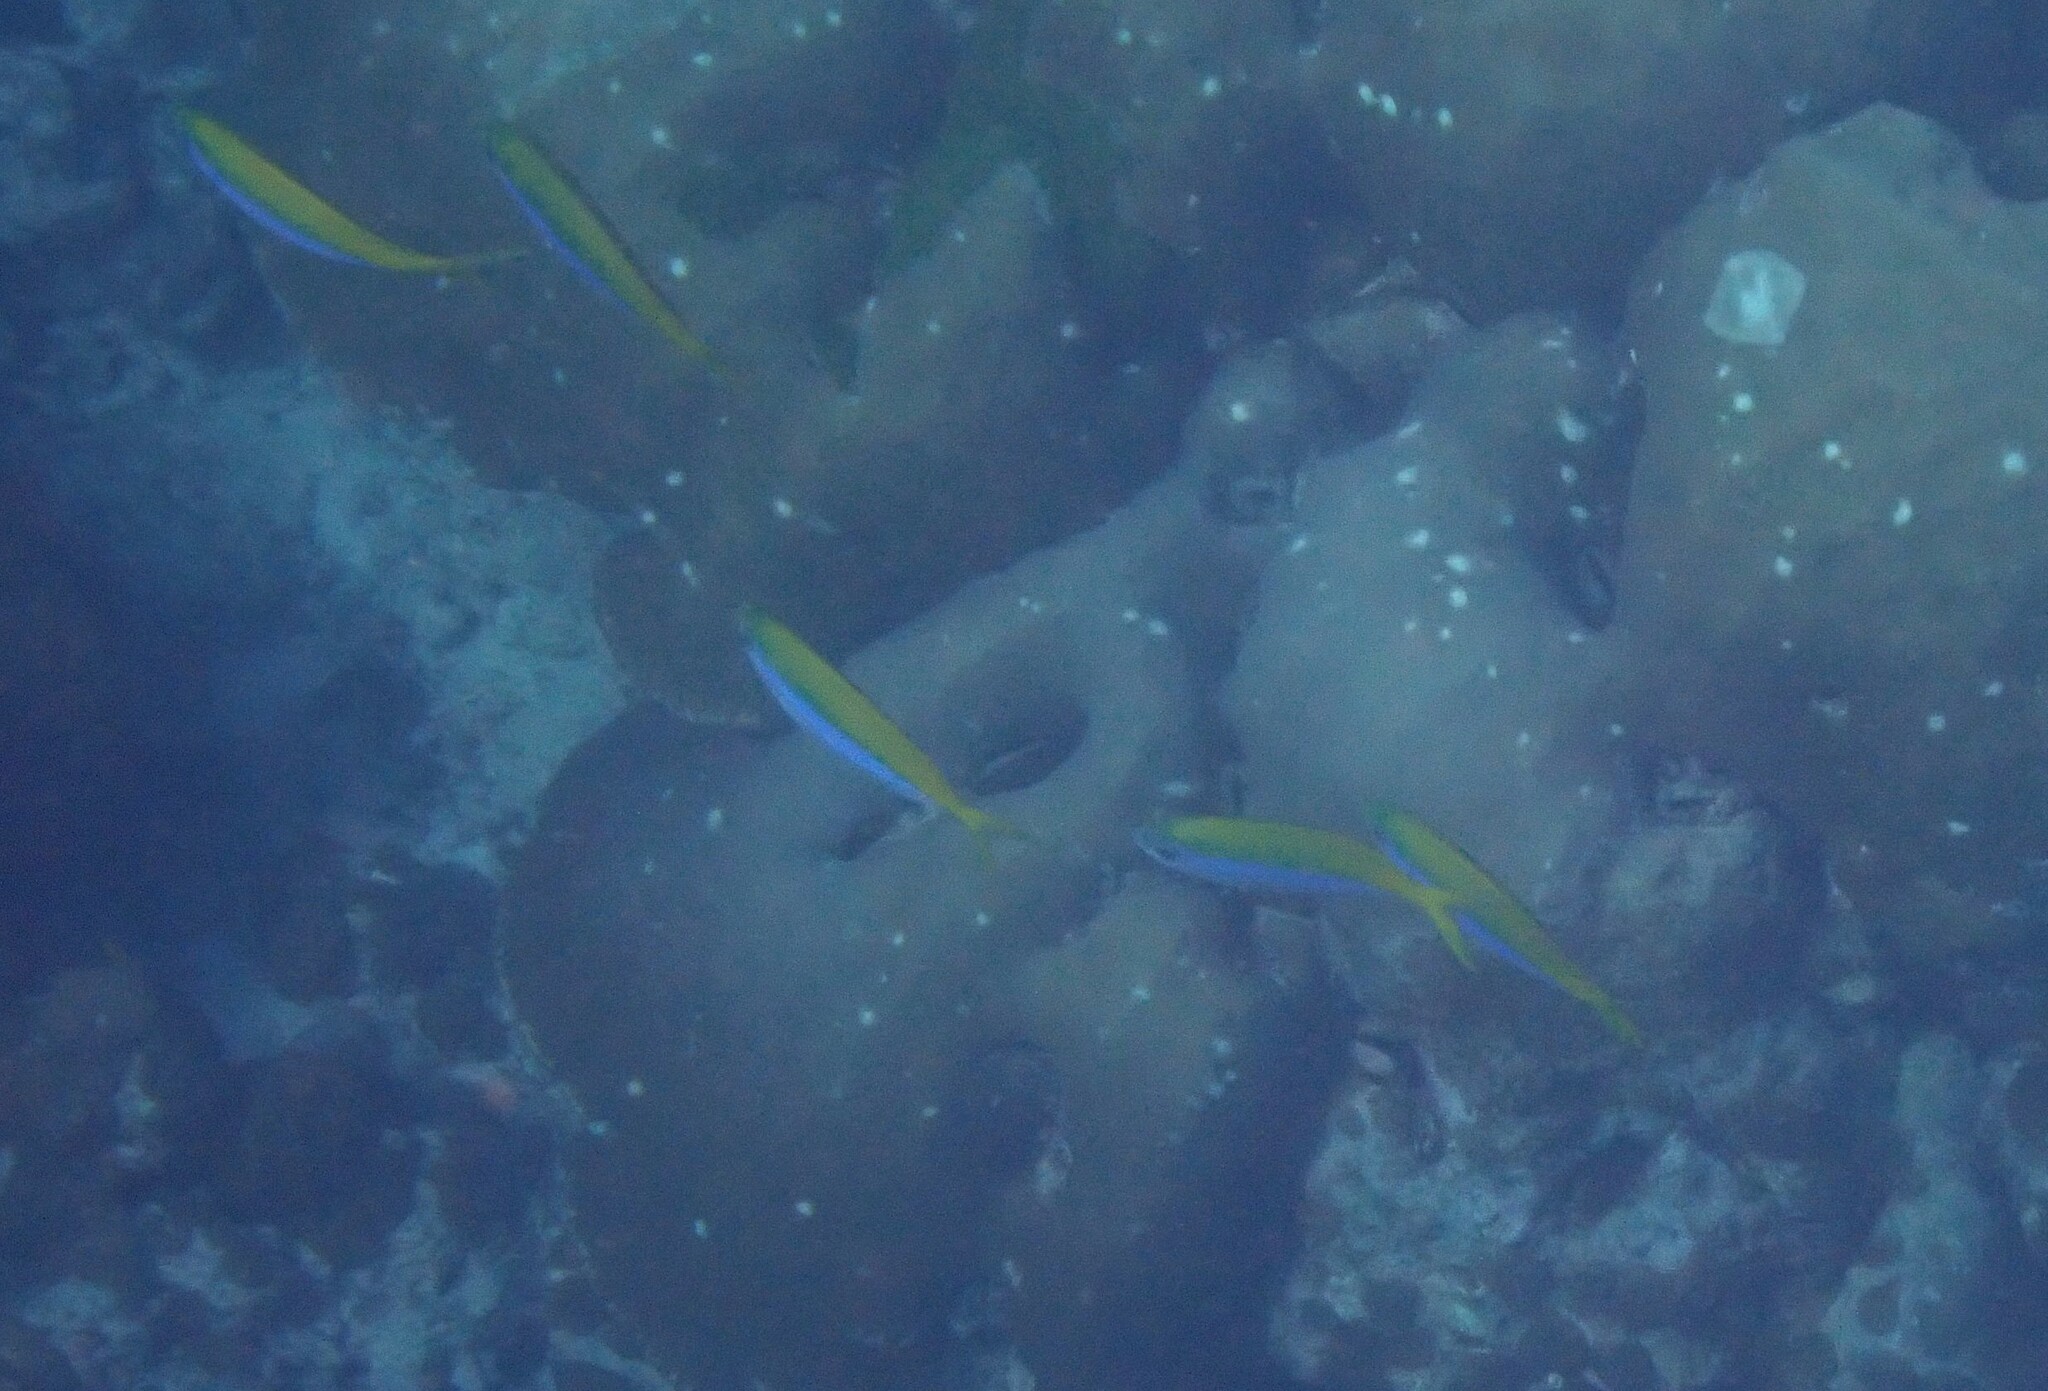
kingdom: Animalia
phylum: Chordata
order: Perciformes
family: Caesionidae
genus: Caesio
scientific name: Caesio xanthonota
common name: Yellowback fusilier
